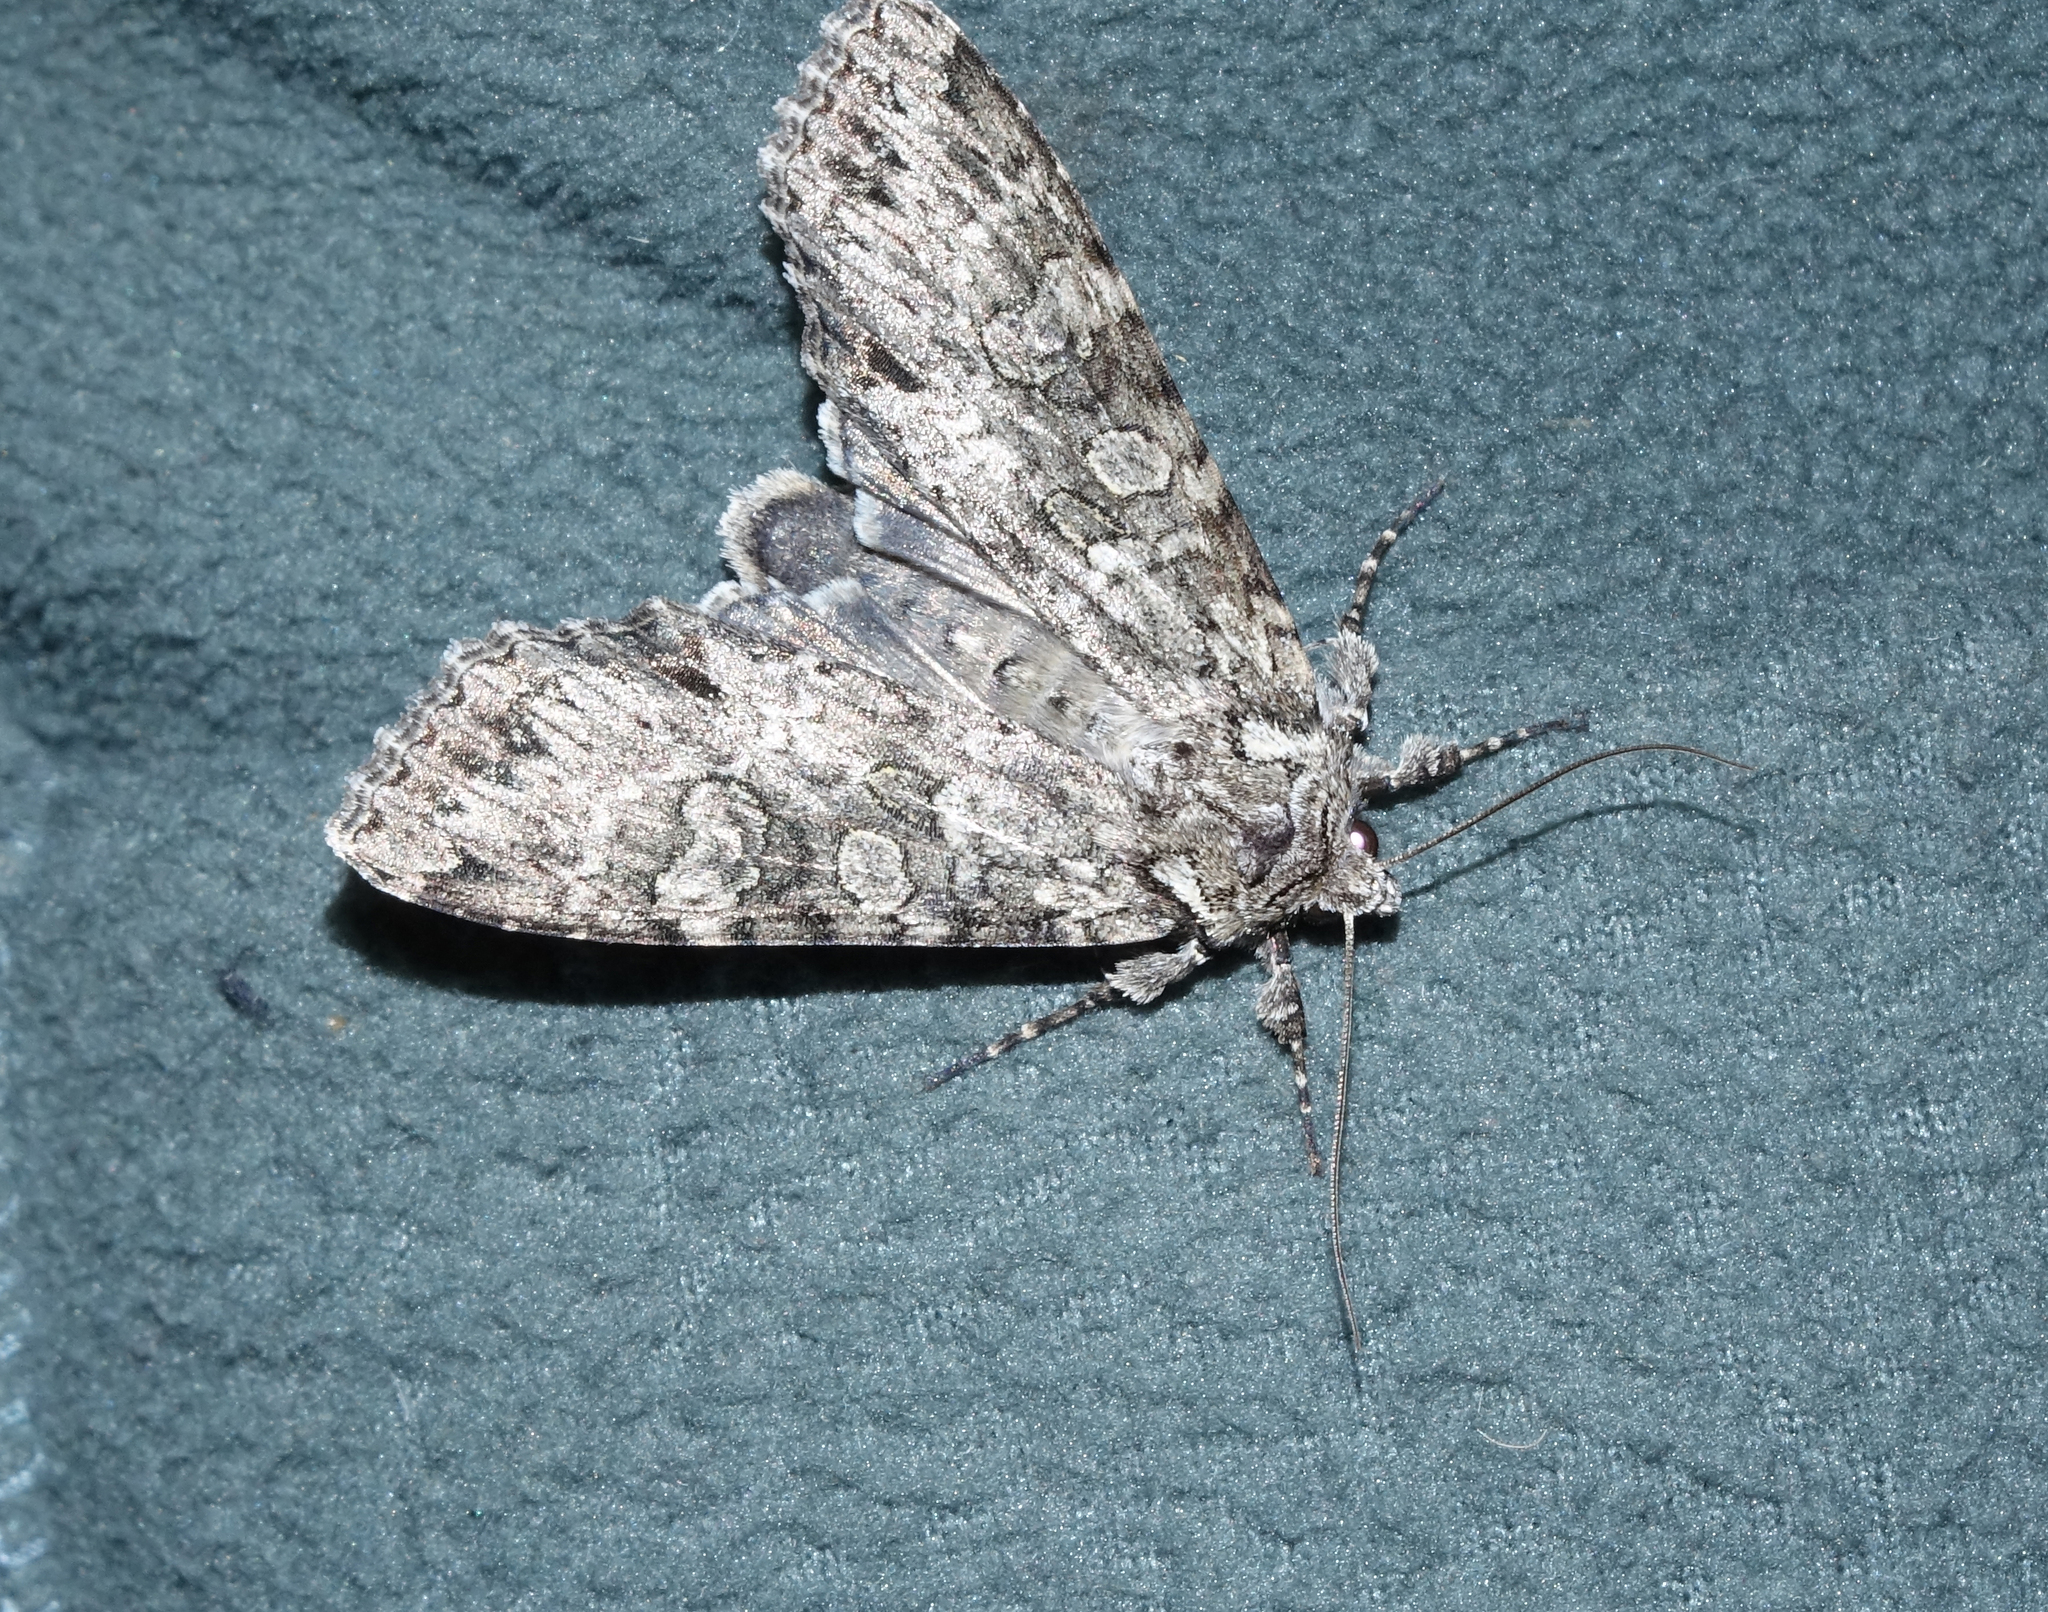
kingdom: Animalia
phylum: Arthropoda
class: Insecta
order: Lepidoptera
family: Noctuidae
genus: Polia
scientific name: Polia nebulosa
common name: Grey arches
